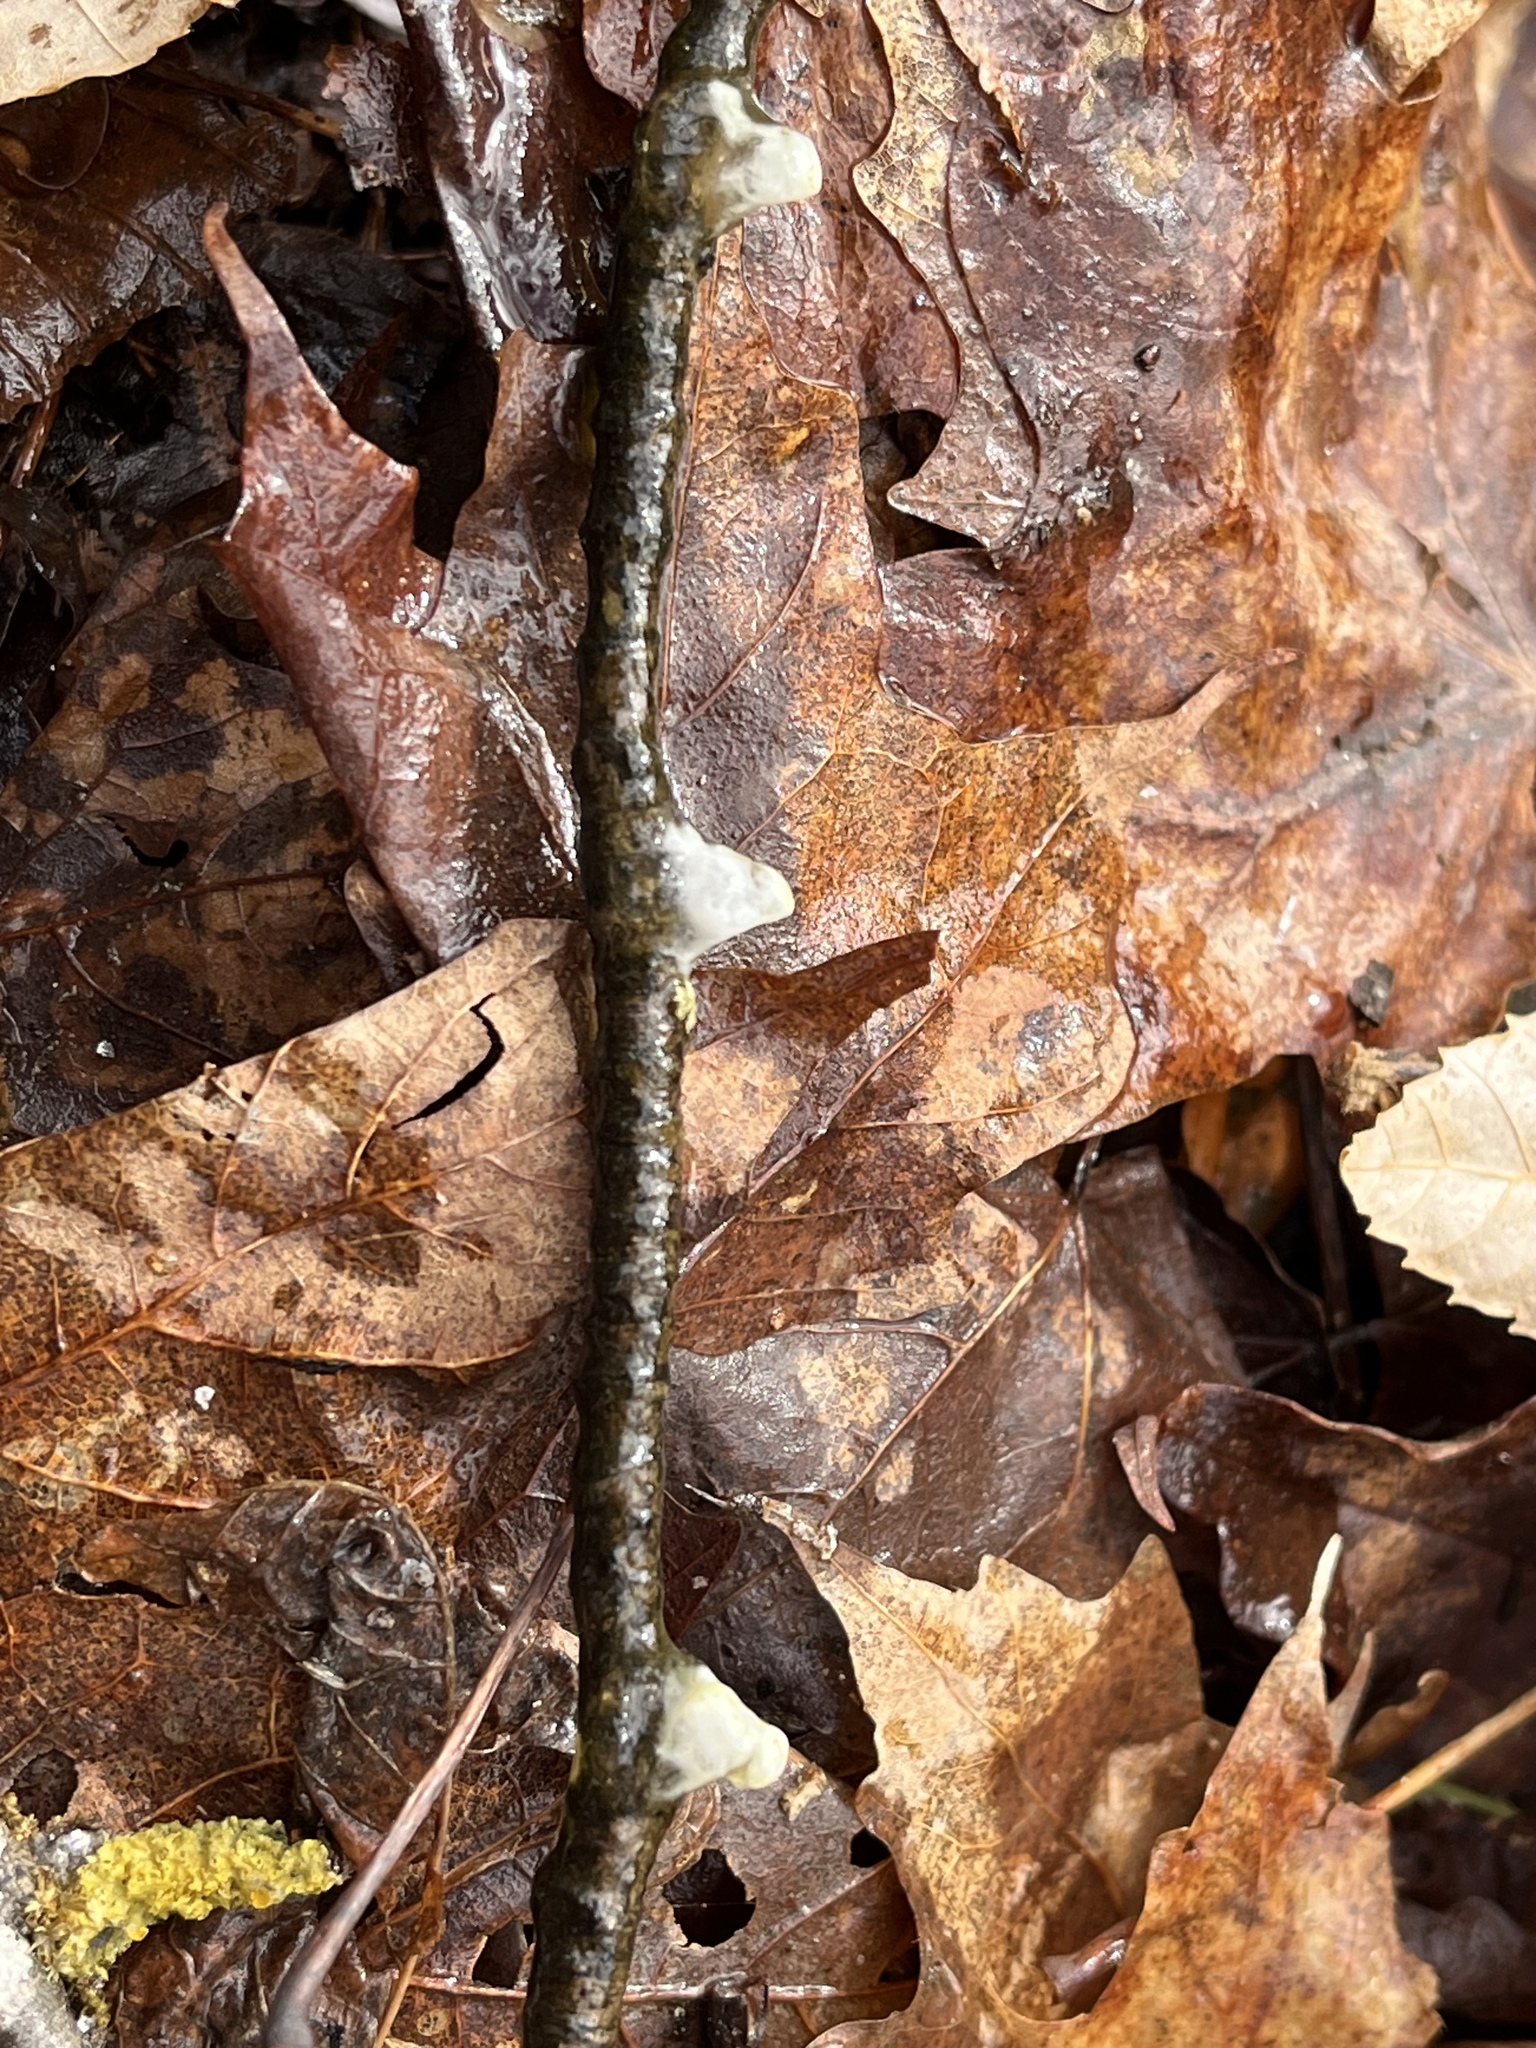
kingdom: Animalia
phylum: Chordata
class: Amphibia
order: Caudata
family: Ambystomatidae
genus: Ambystoma
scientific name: Ambystoma
